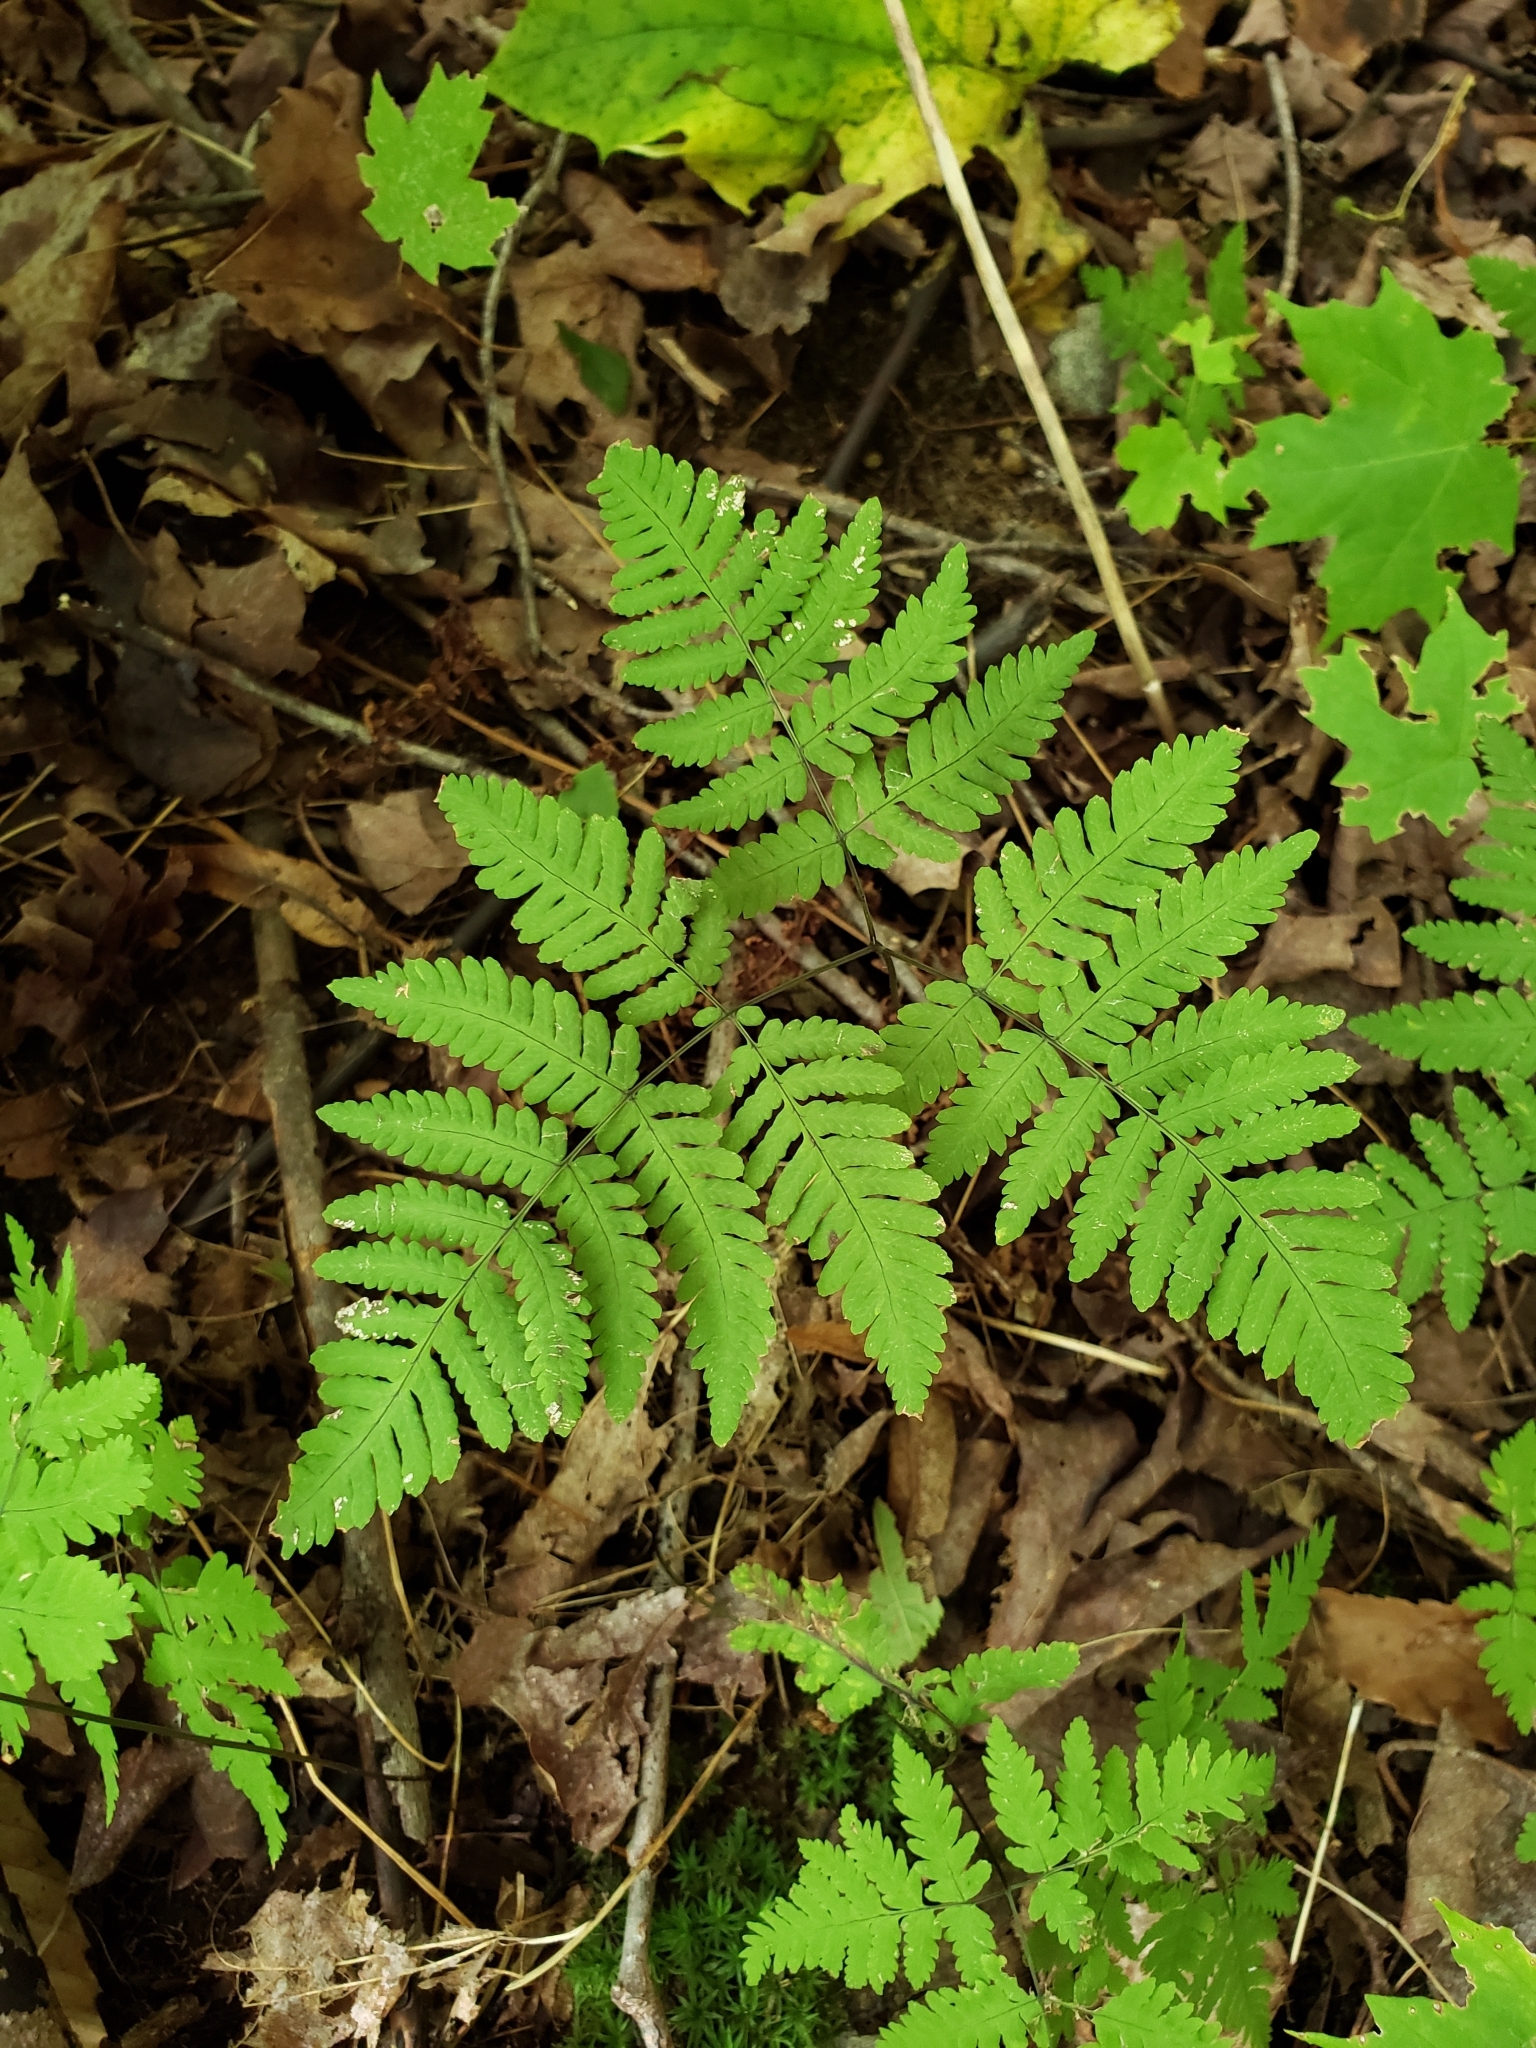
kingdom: Plantae
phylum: Tracheophyta
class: Polypodiopsida
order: Polypodiales
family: Cystopteridaceae
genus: Gymnocarpium
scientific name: Gymnocarpium dryopteris
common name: Oak fern
